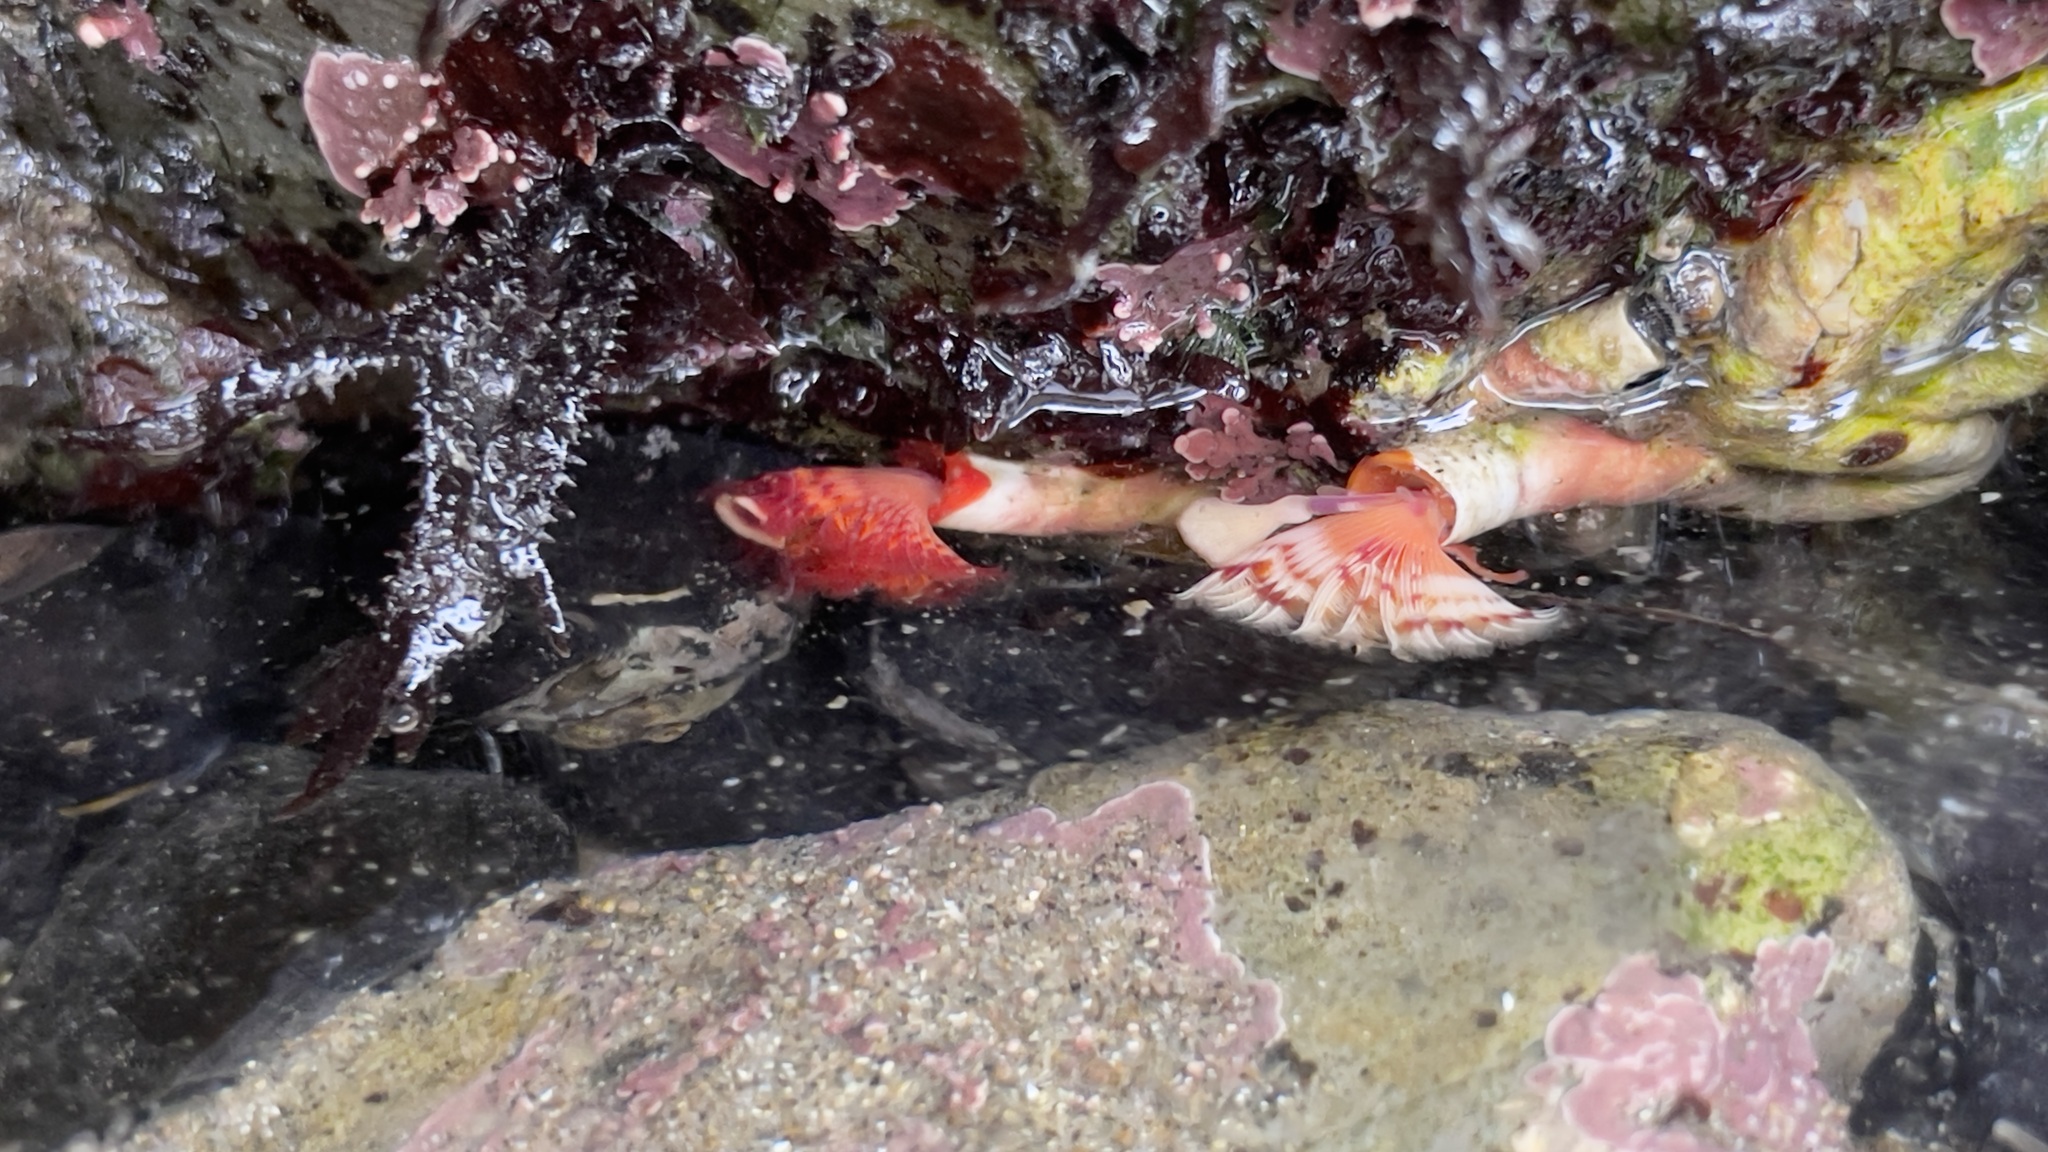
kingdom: Animalia
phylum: Annelida
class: Polychaeta
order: Sabellida
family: Serpulidae
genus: Serpula
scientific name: Serpula columbiana
